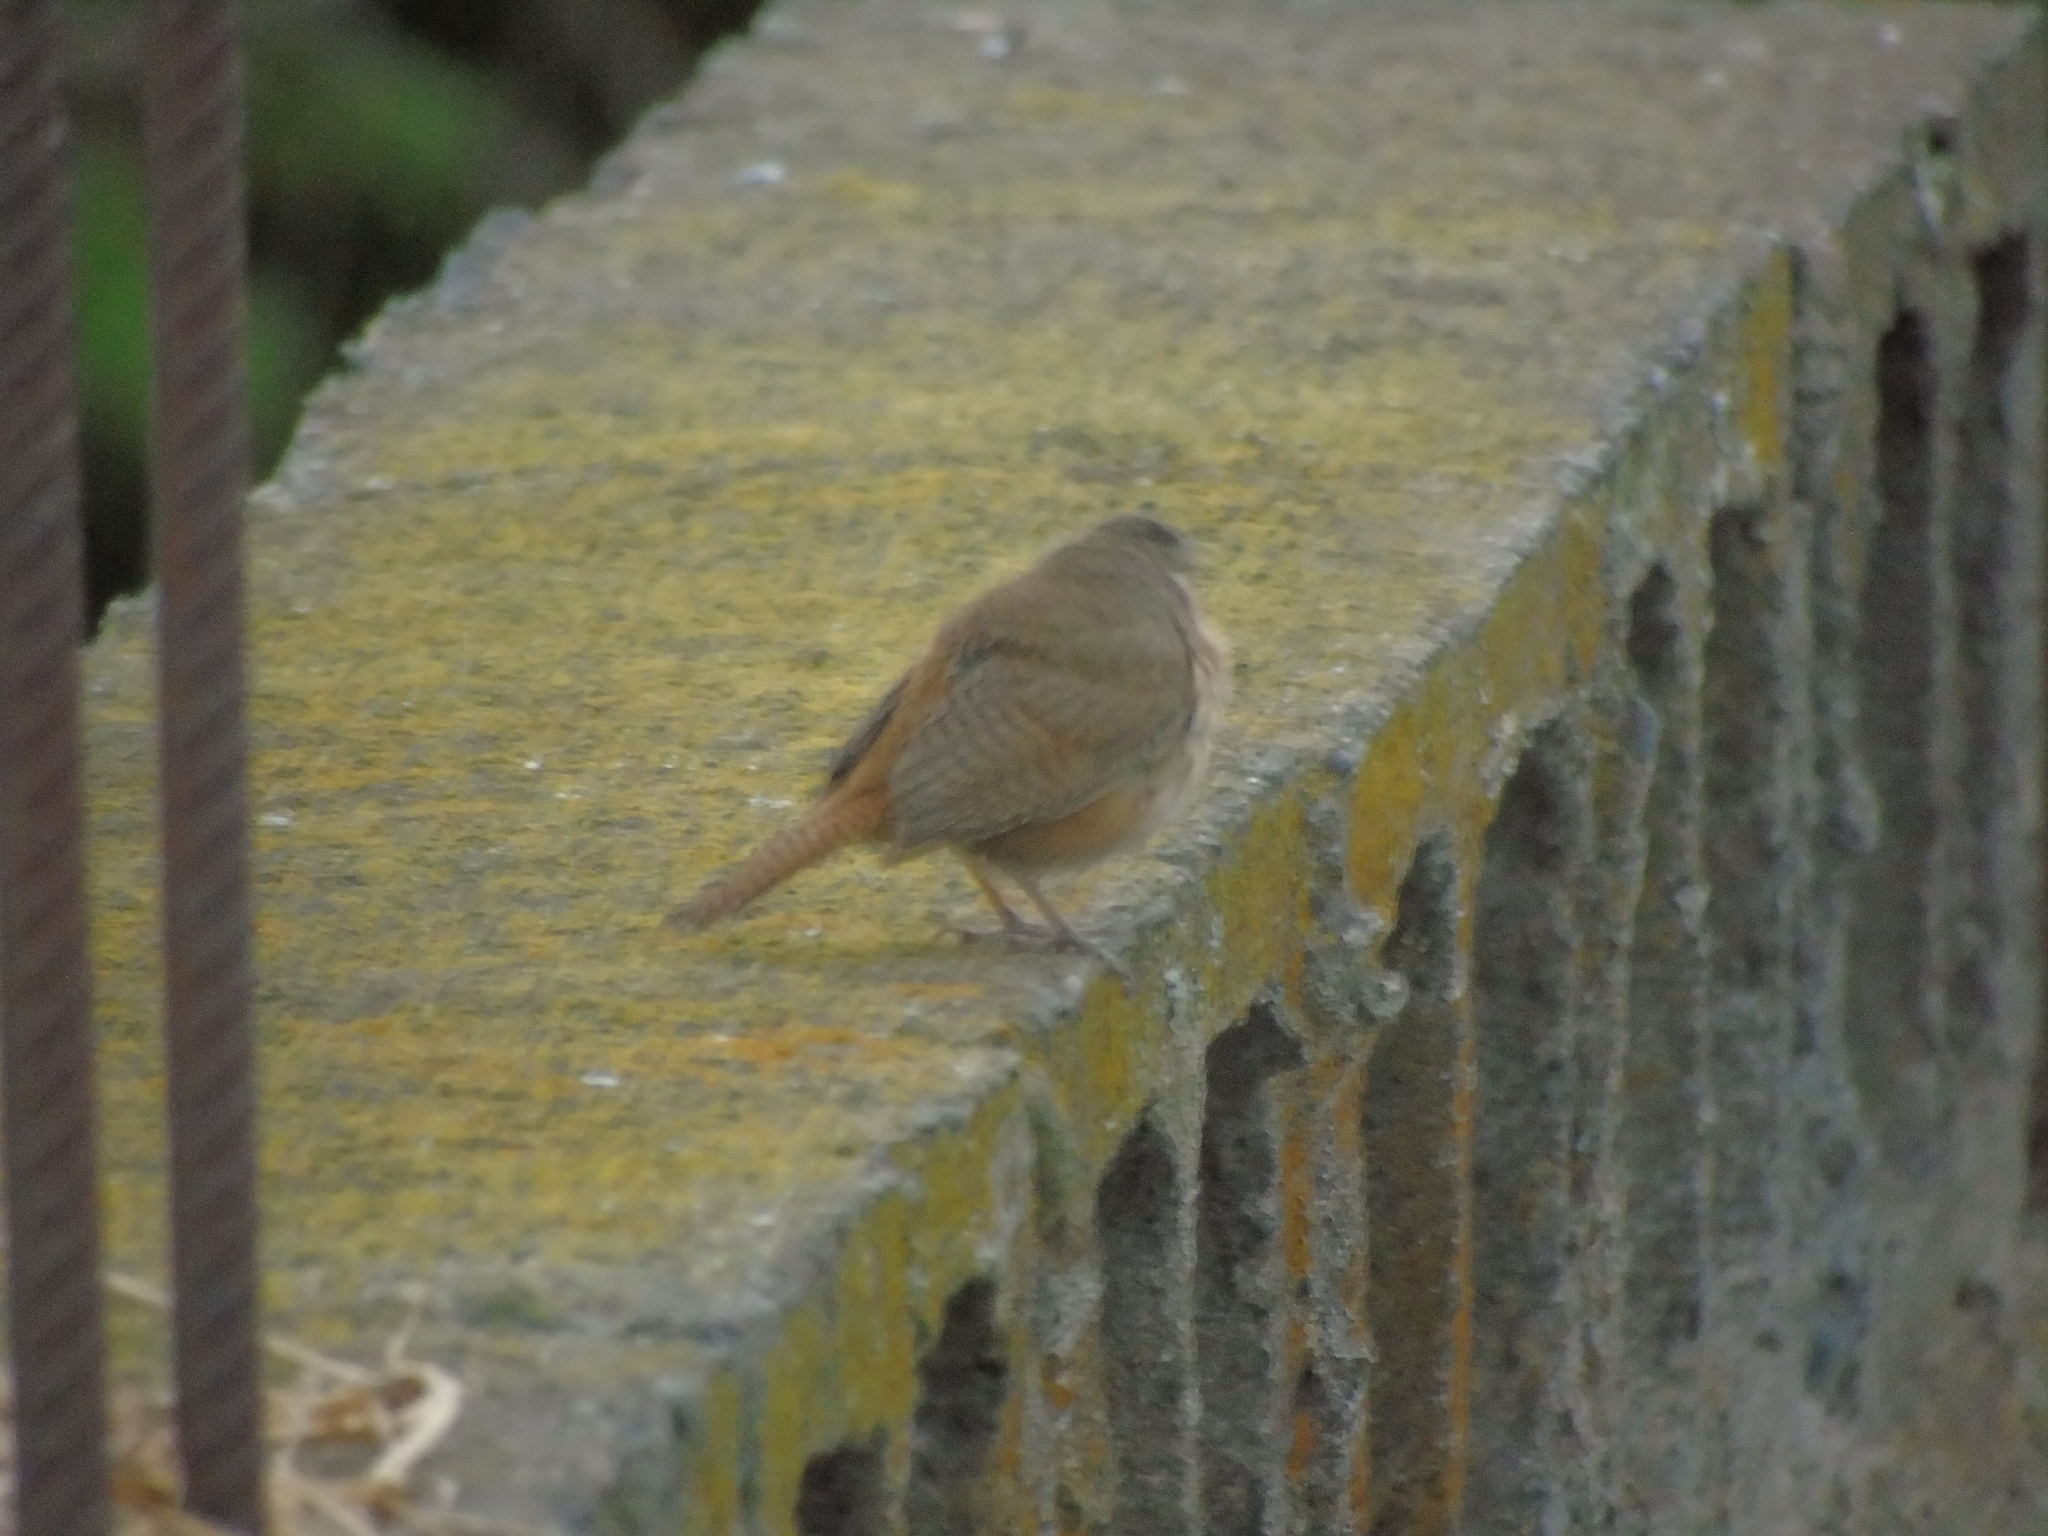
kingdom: Animalia
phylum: Chordata
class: Aves
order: Passeriformes
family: Troglodytidae
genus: Troglodytes
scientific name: Troglodytes aedon
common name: House wren
